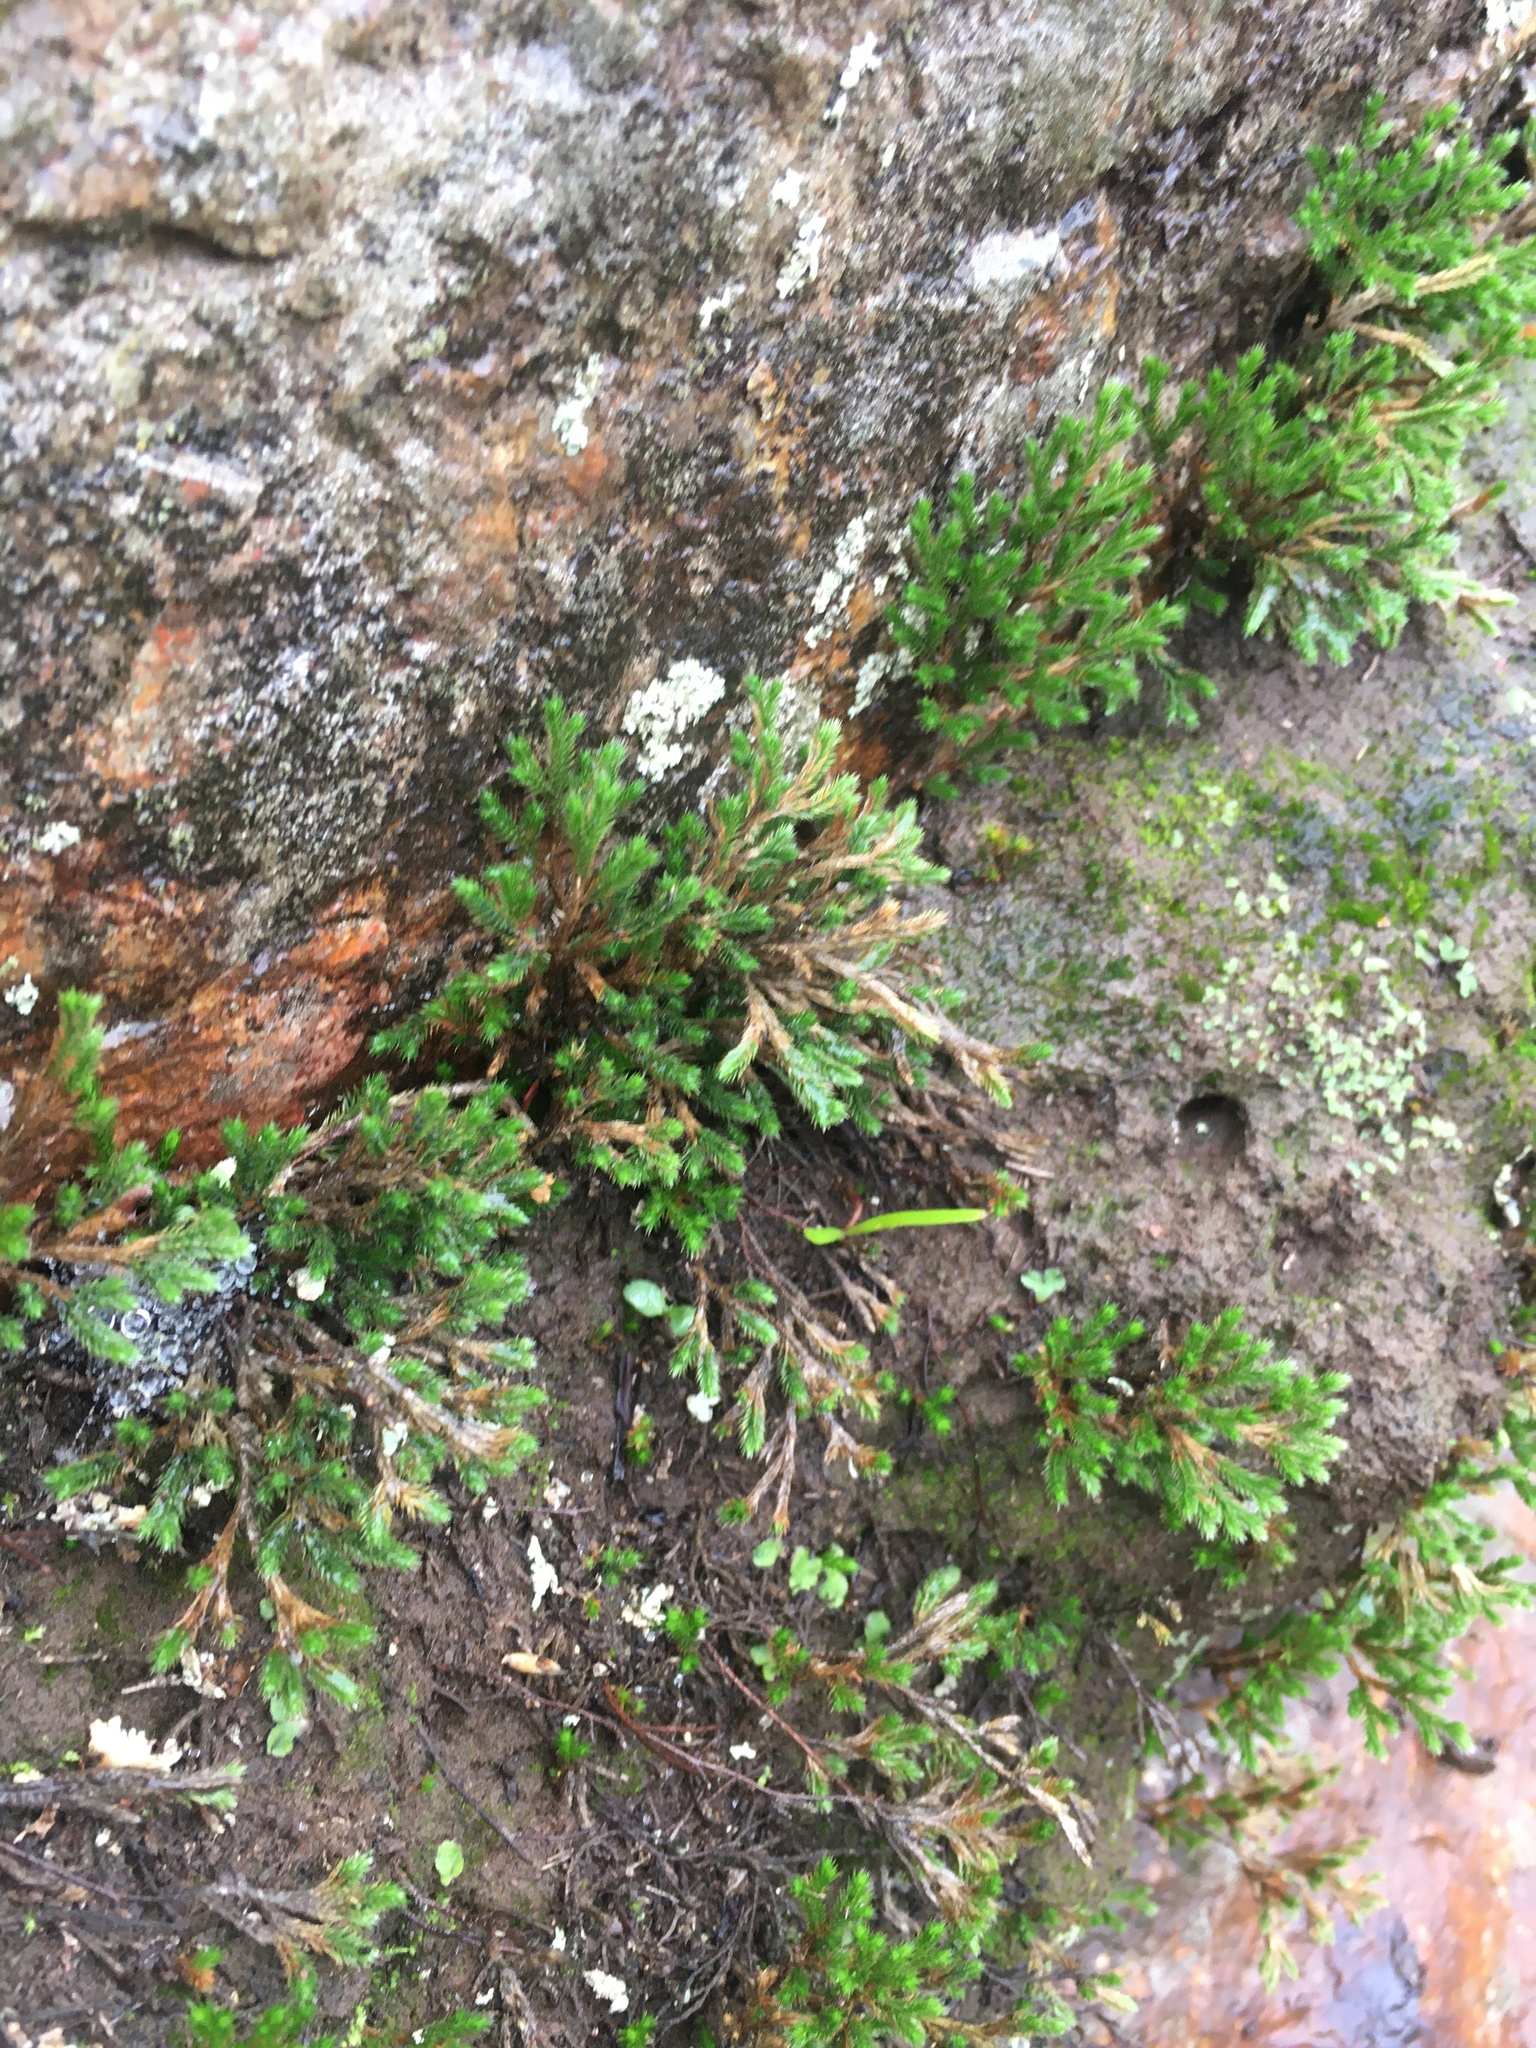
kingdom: Plantae
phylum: Tracheophyta
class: Lycopodiopsida
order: Selaginellales
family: Selaginellaceae
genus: Selaginella
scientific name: Selaginella bigelovii
